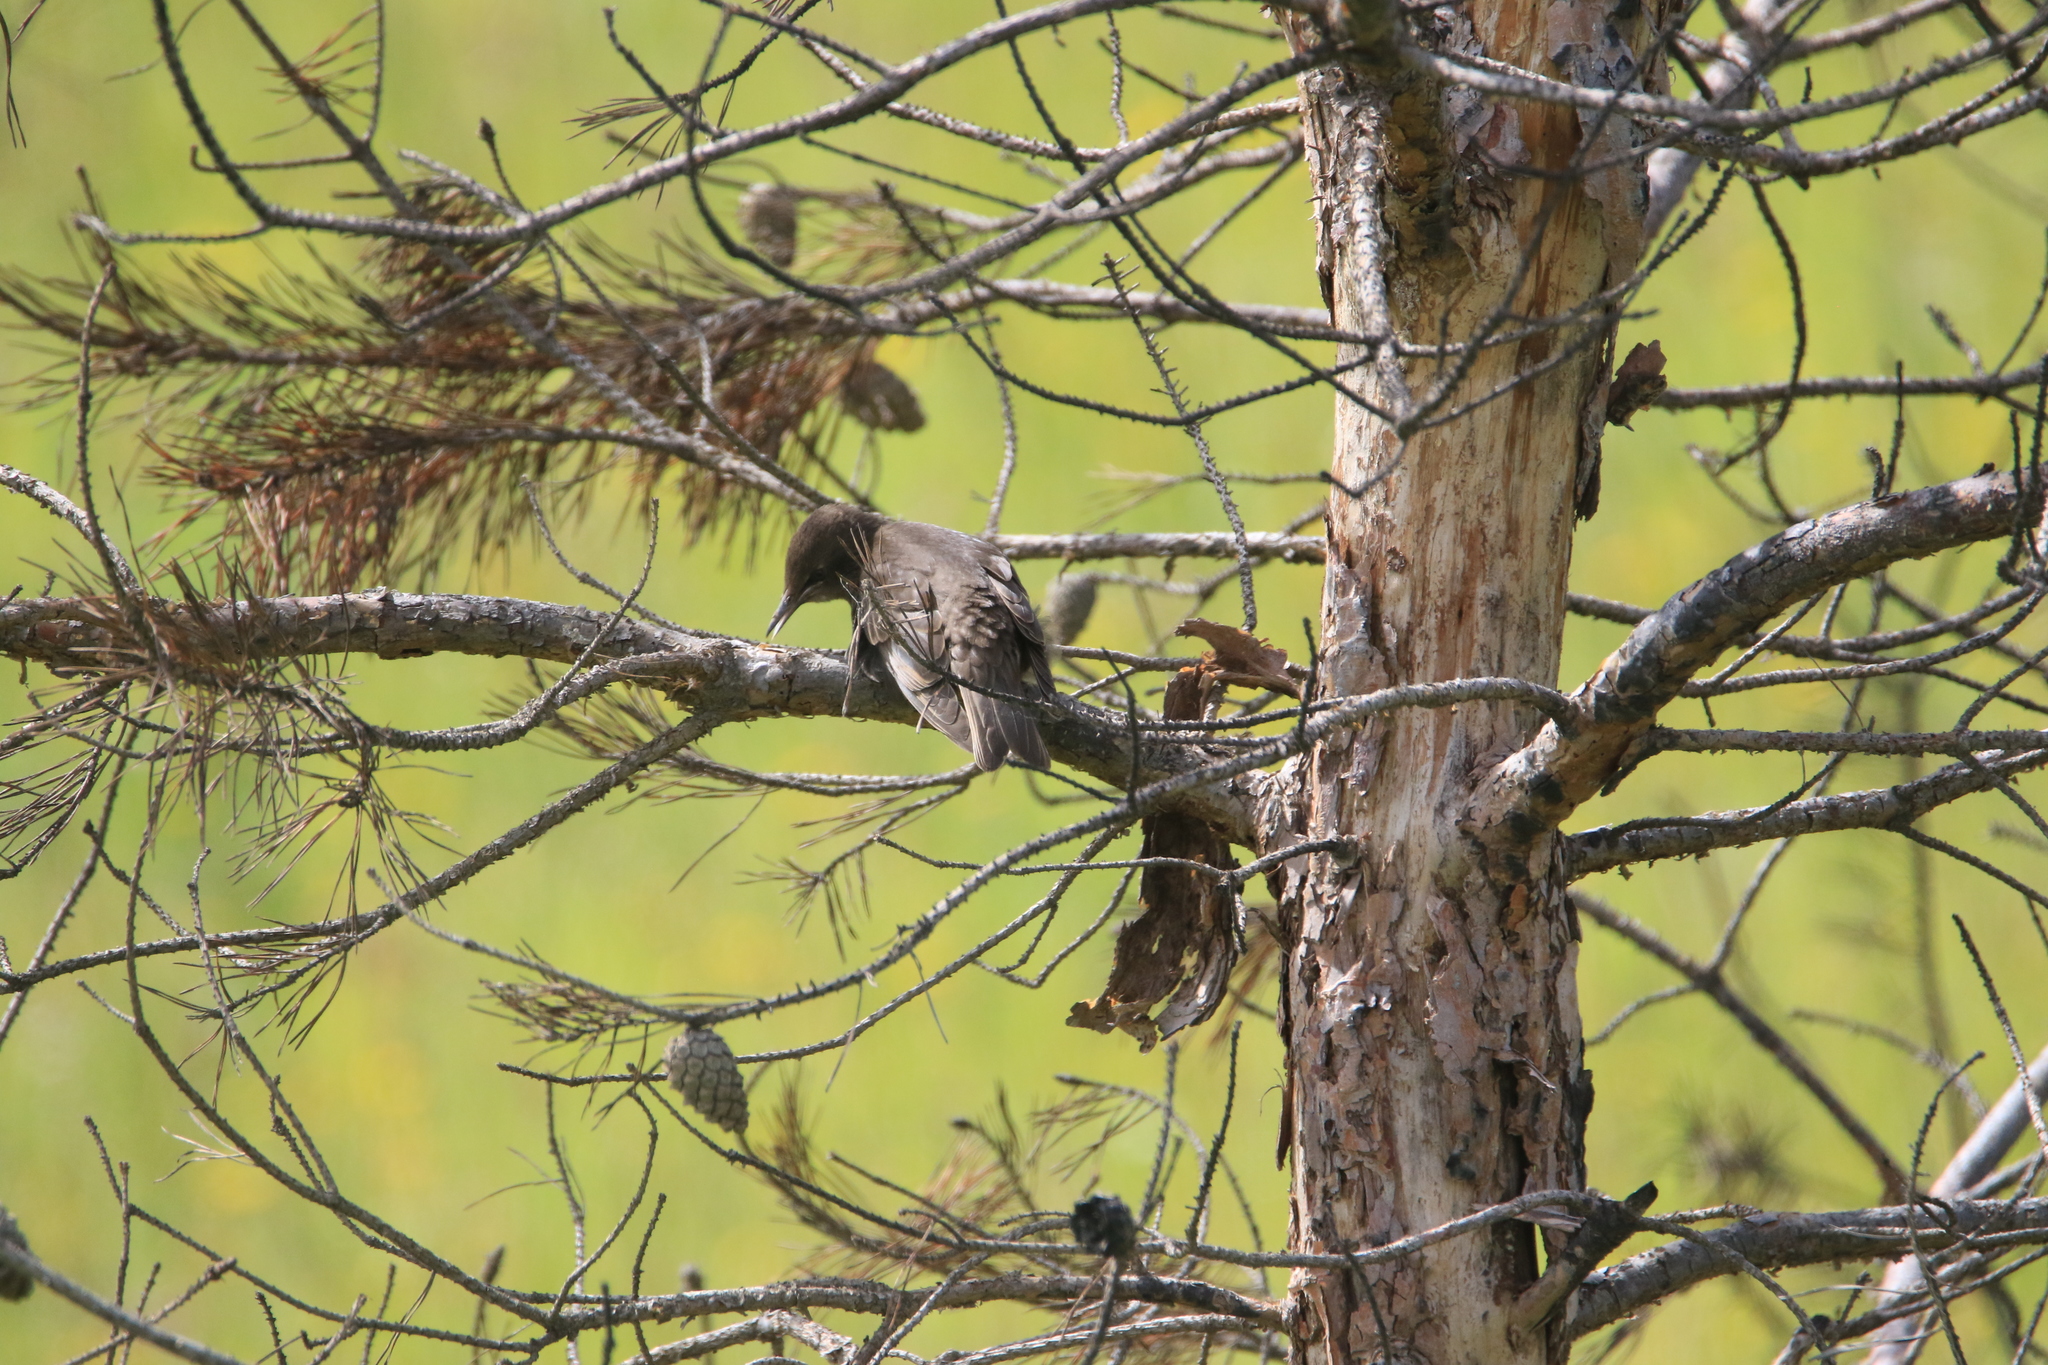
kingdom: Animalia
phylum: Chordata
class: Aves
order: Passeriformes
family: Sturnidae
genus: Sturnus
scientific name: Sturnus vulgaris
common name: Common starling
